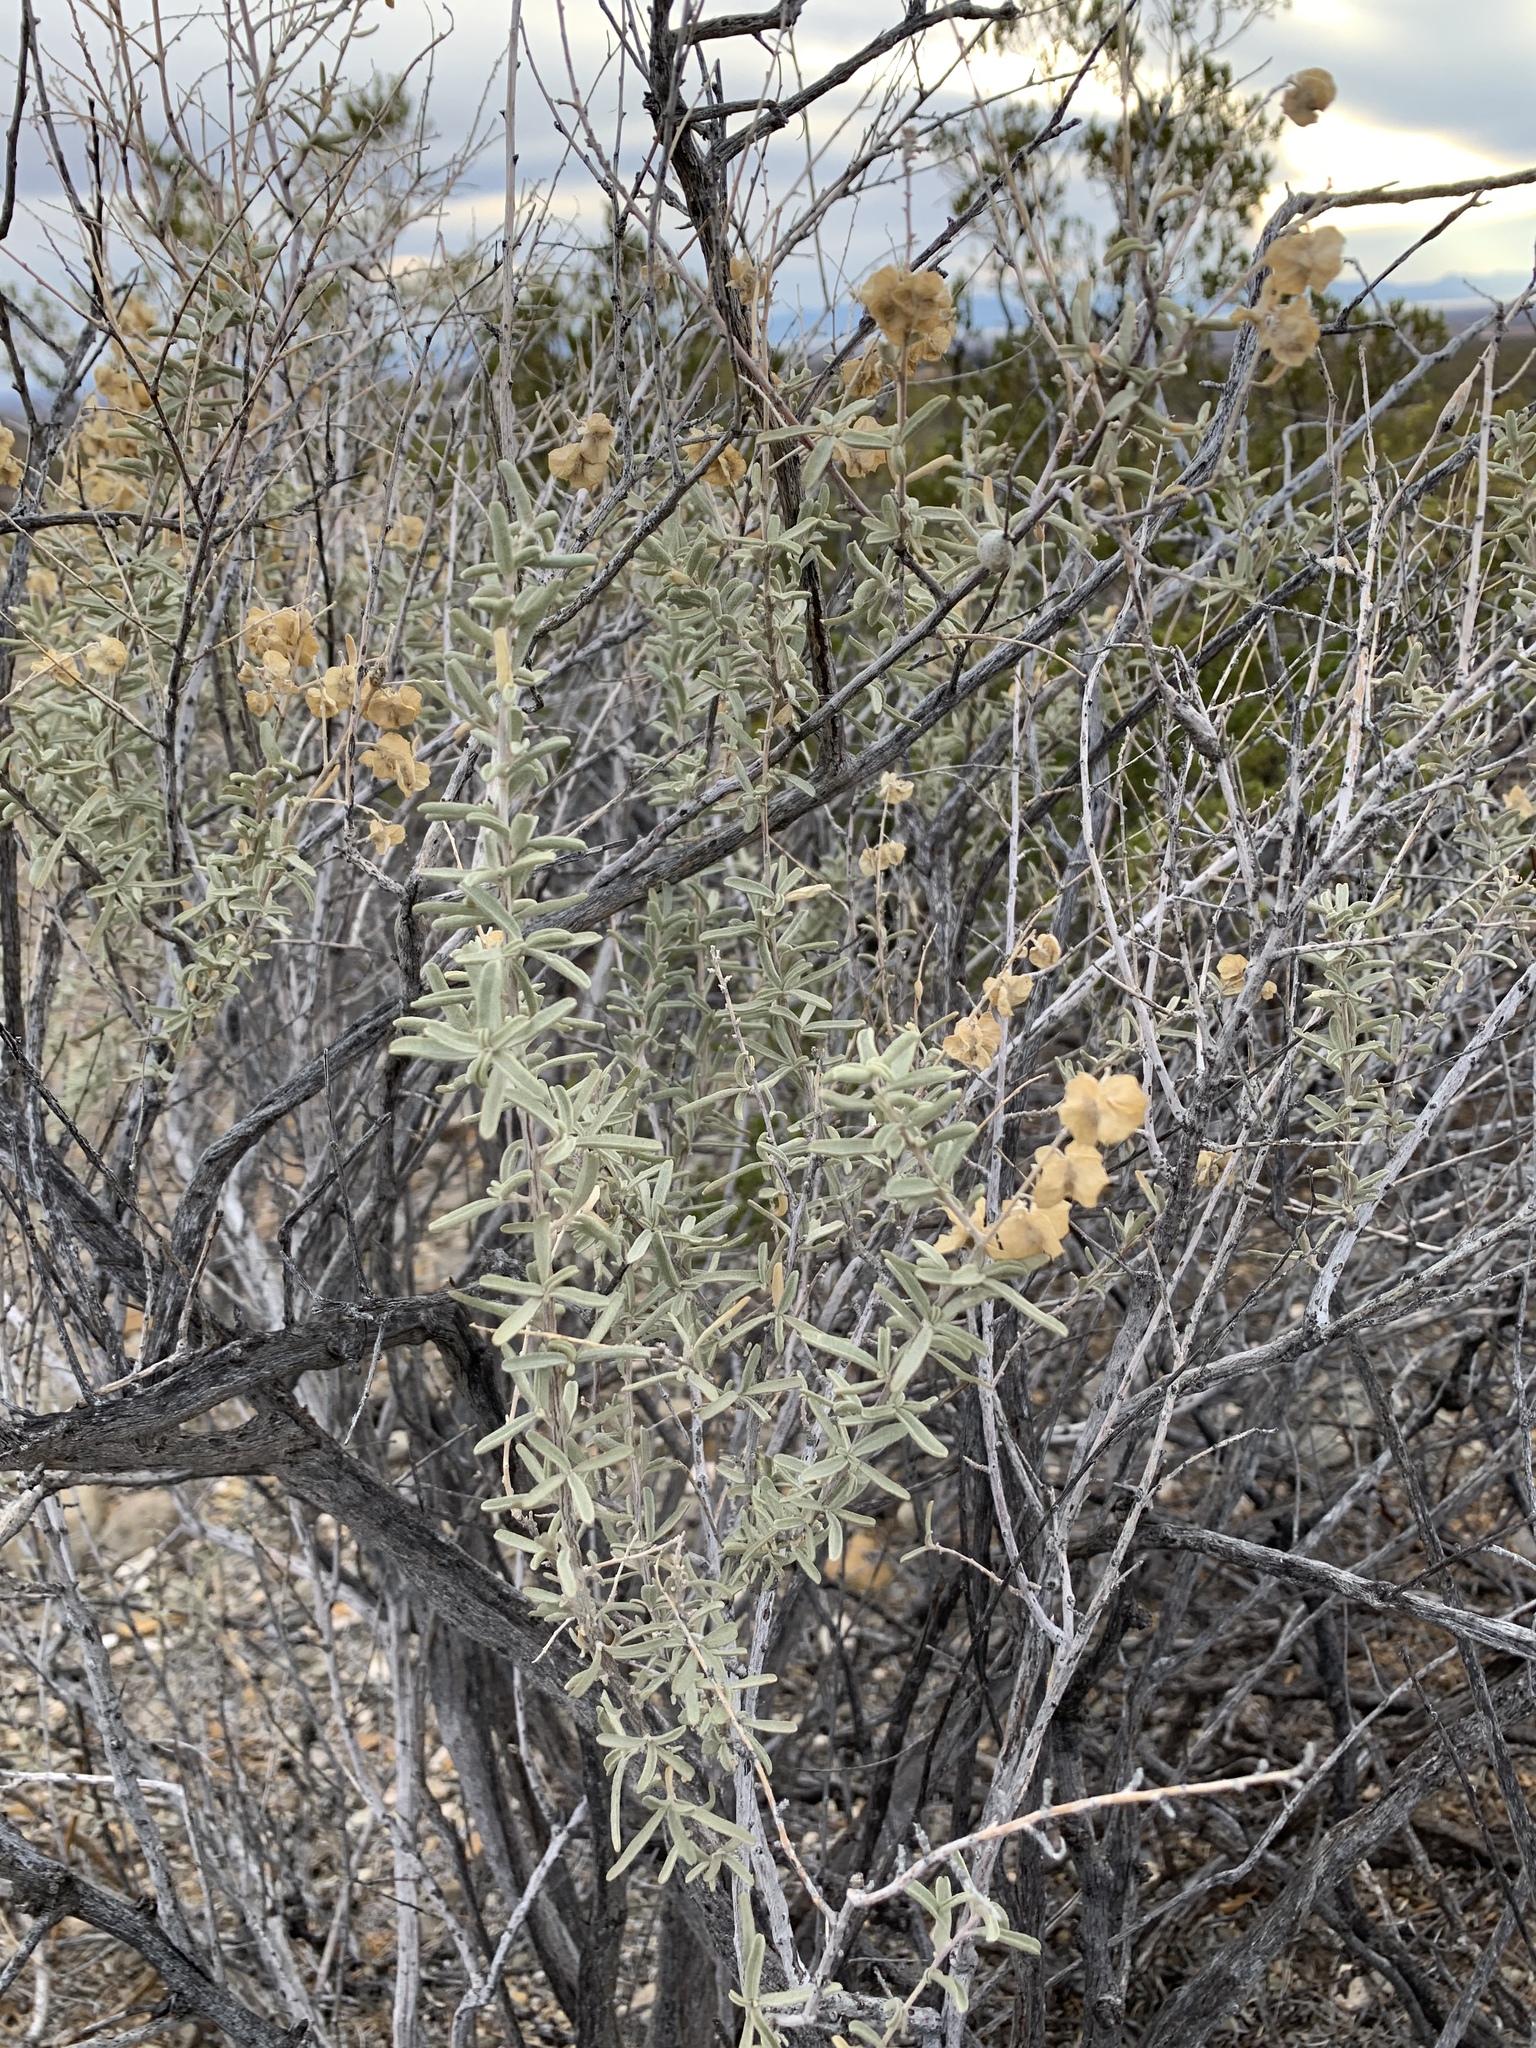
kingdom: Plantae
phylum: Tracheophyta
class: Magnoliopsida
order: Caryophyllales
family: Amaranthaceae
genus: Atriplex
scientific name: Atriplex canescens
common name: Four-wing saltbush
